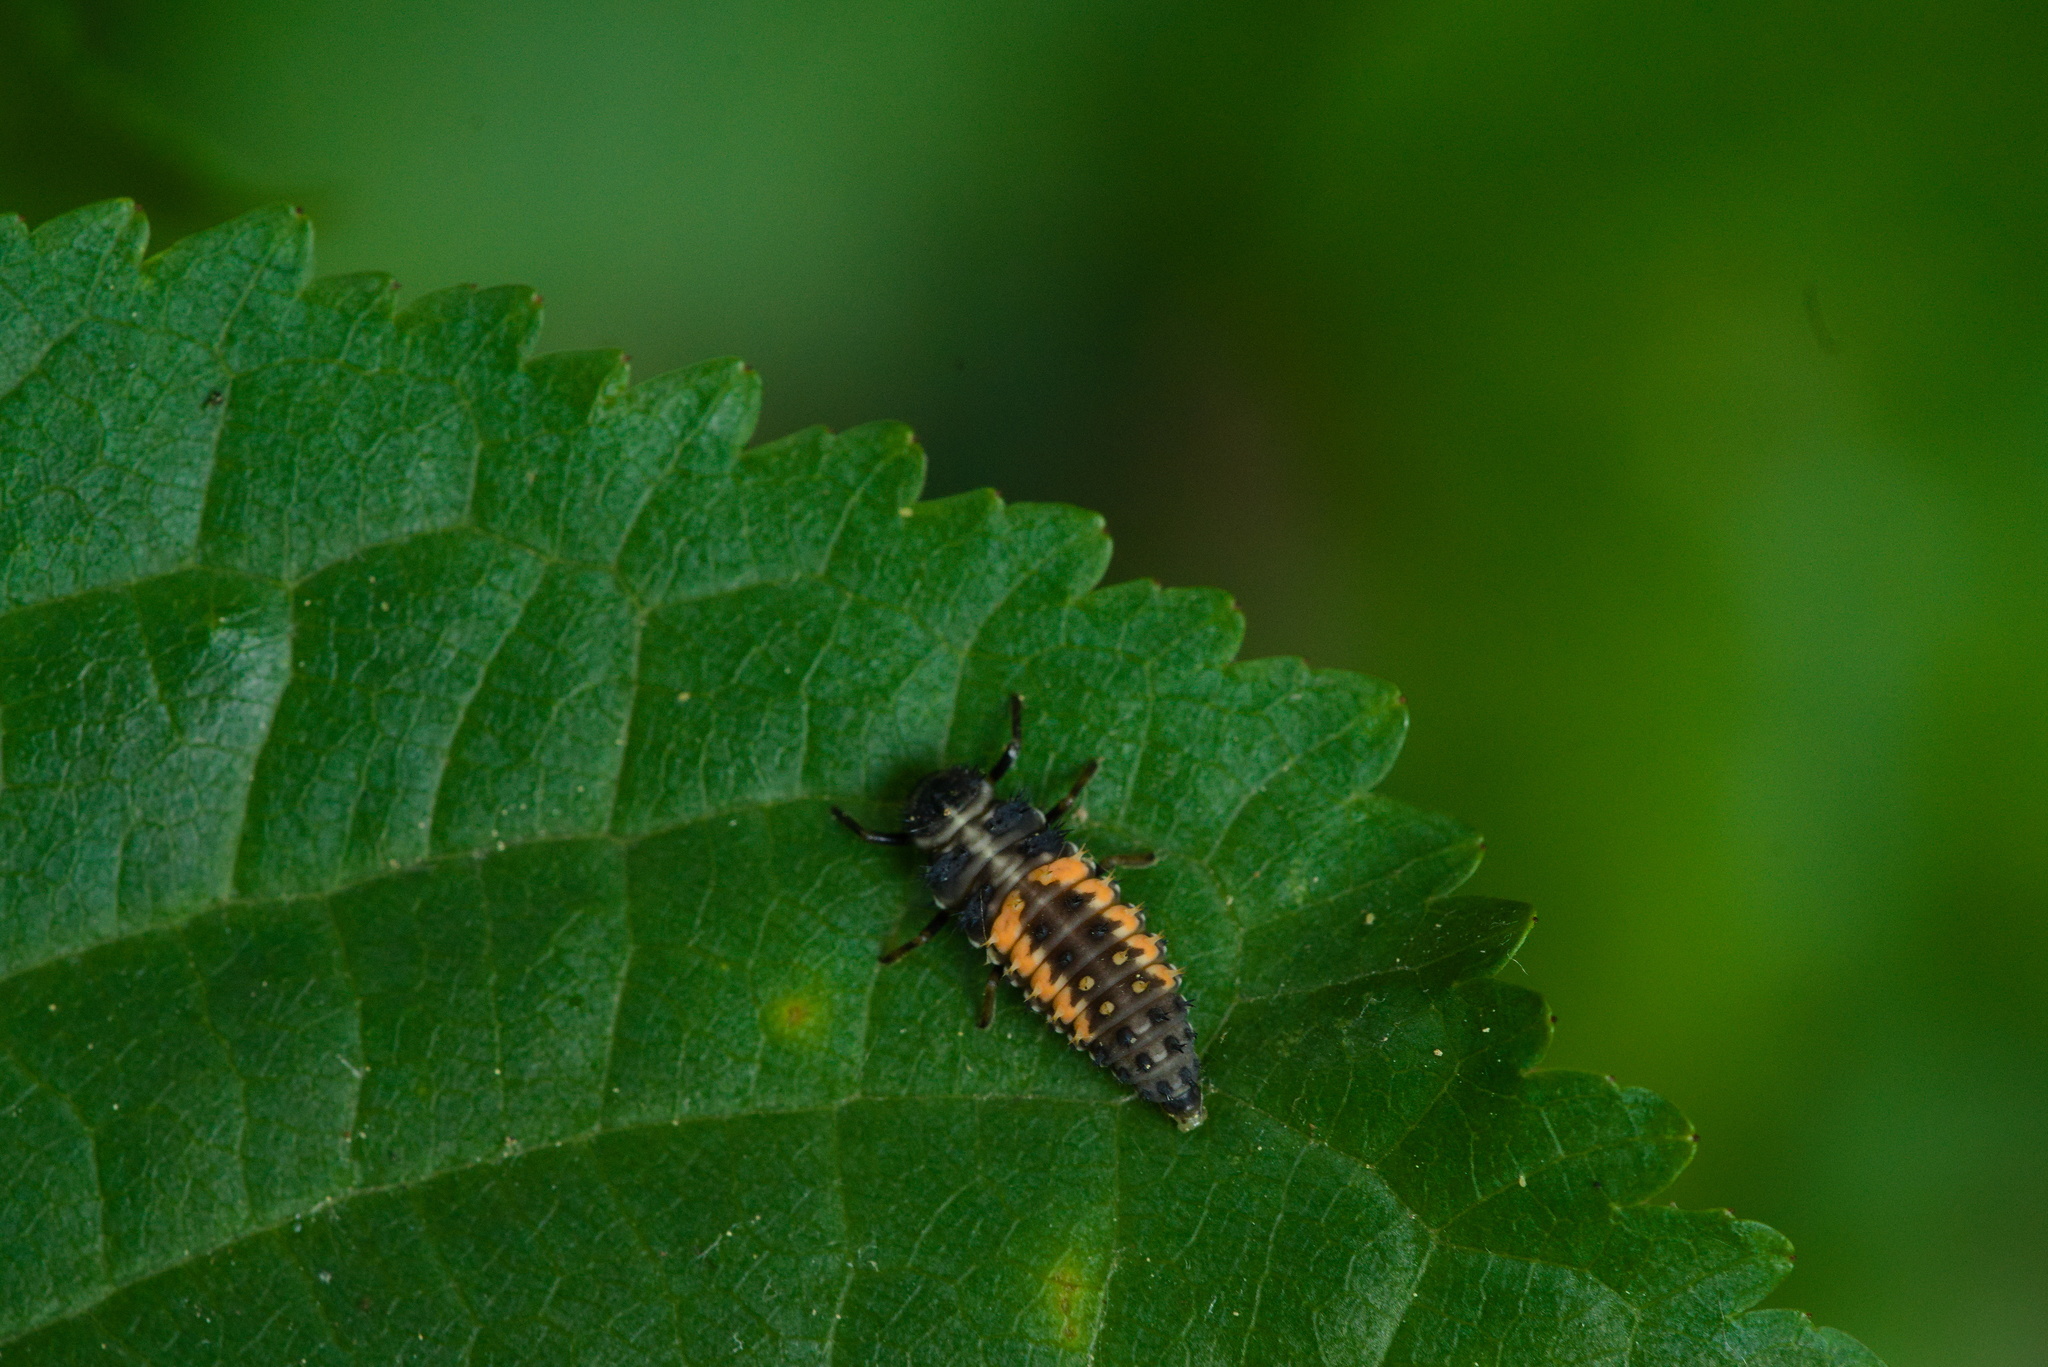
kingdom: Animalia
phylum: Arthropoda
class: Insecta
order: Coleoptera
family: Coccinellidae
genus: Harmonia
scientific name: Harmonia axyridis
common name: Harlequin ladybird
